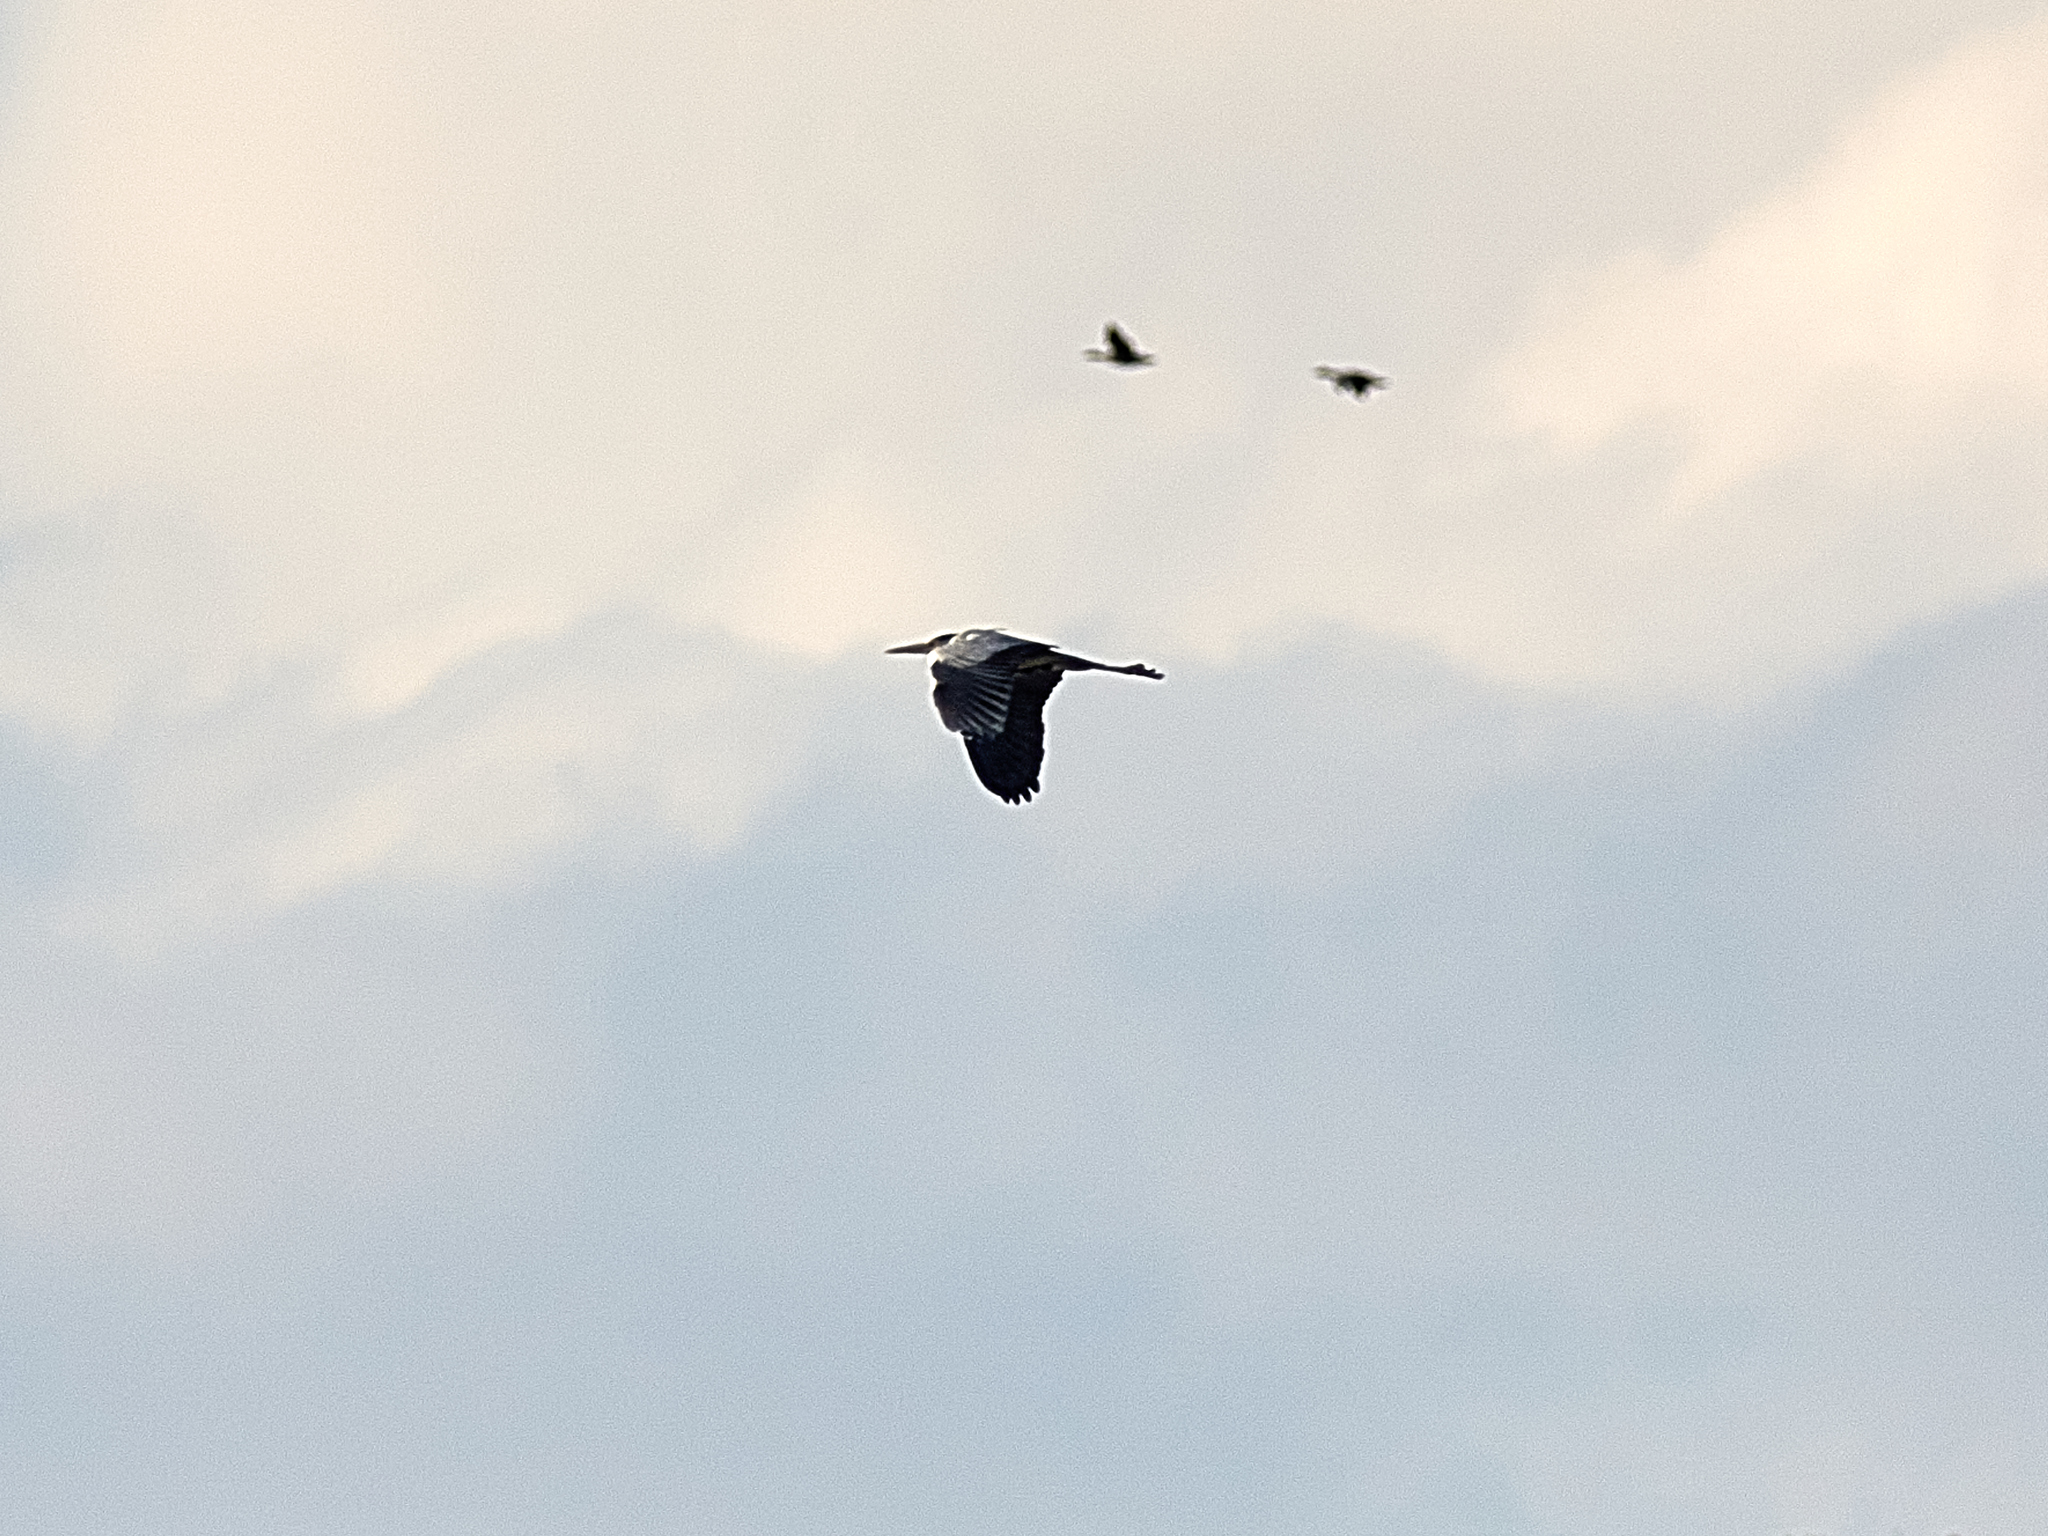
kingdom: Animalia
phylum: Chordata
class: Aves
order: Pelecaniformes
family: Ardeidae
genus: Ardea
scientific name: Ardea cinerea
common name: Grey heron
